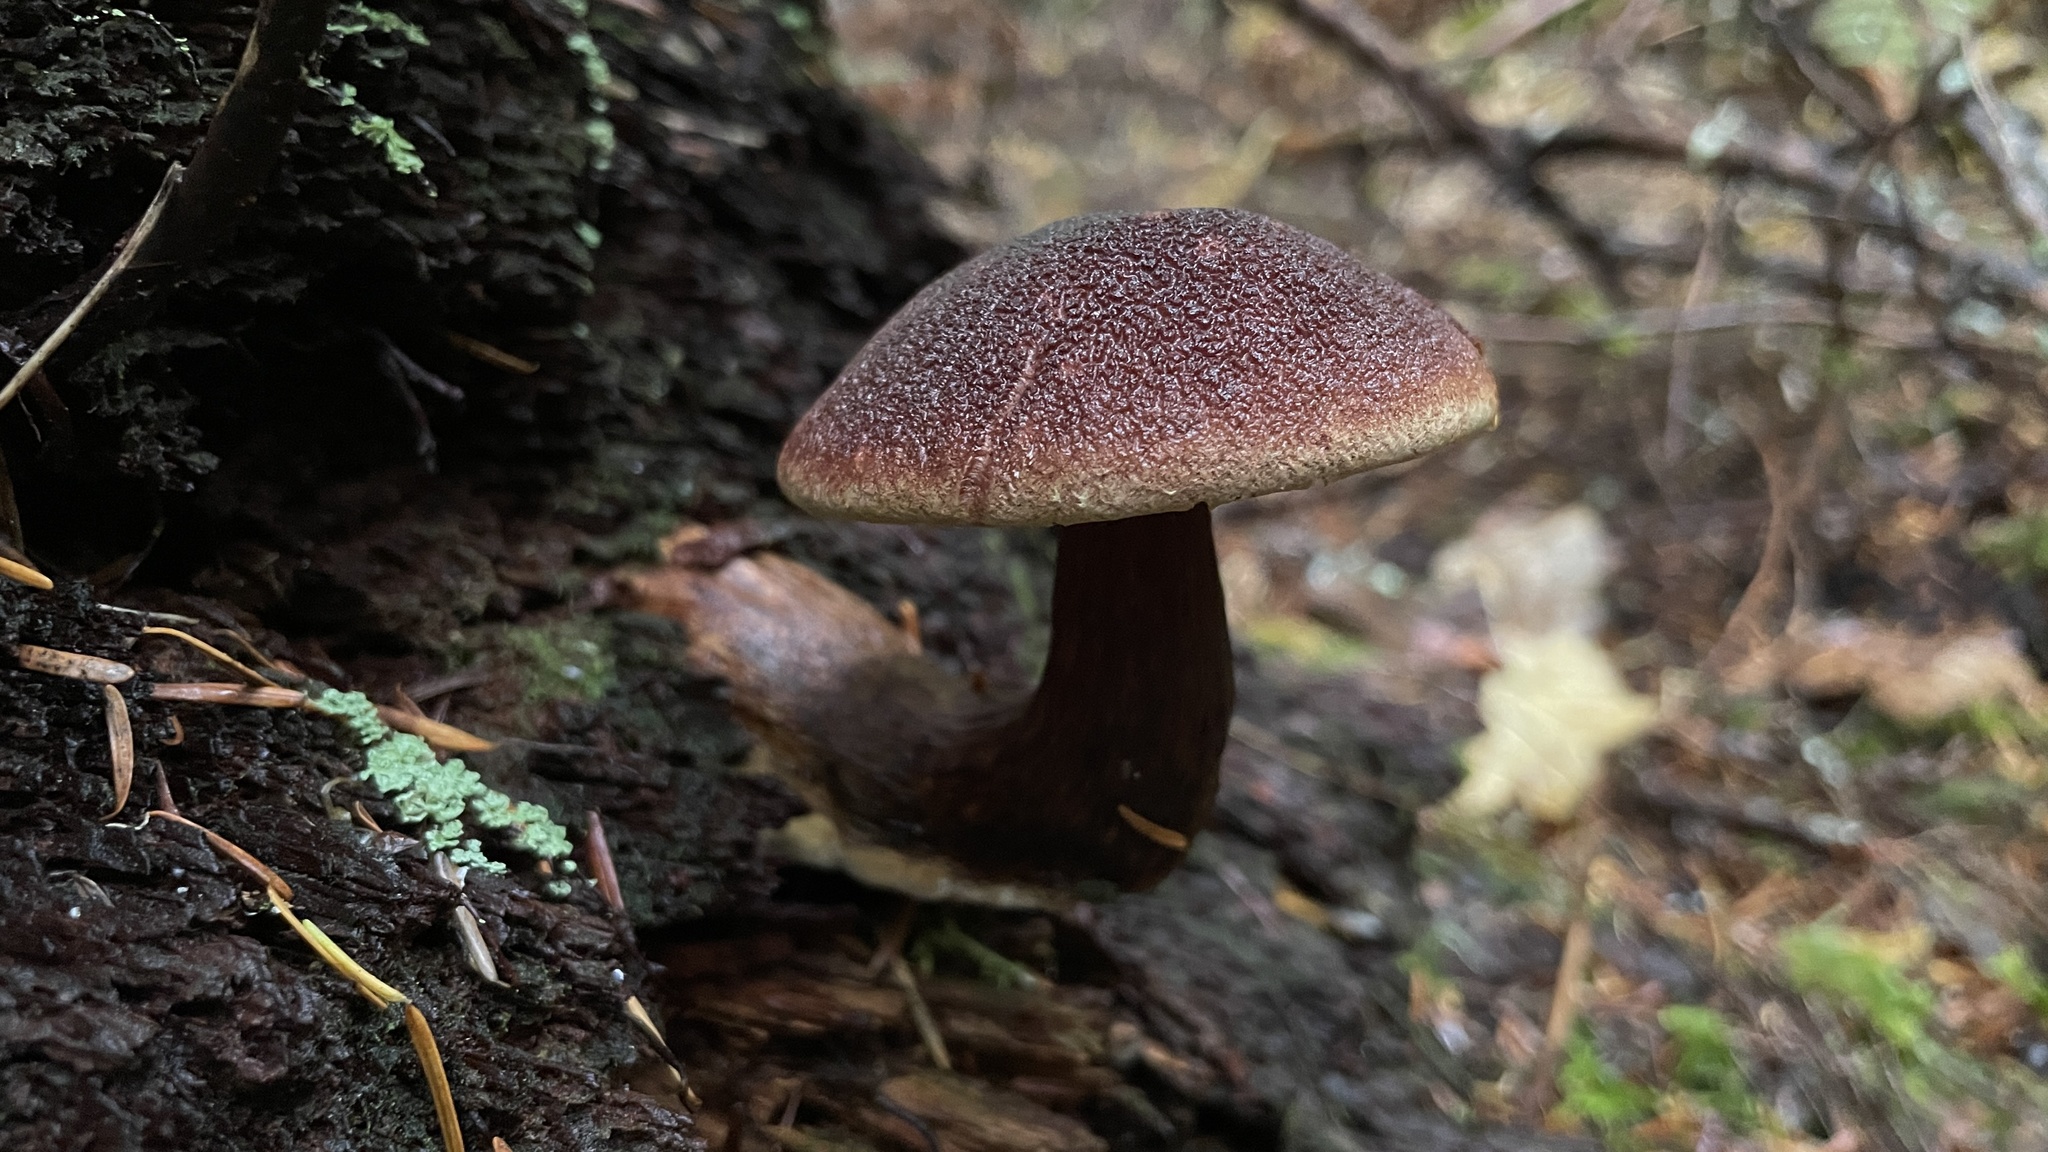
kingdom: Fungi
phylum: Basidiomycota
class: Agaricomycetes
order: Boletales
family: Boletaceae
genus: Aureoboletus
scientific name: Aureoboletus mirabilis
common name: Admirable bolete
